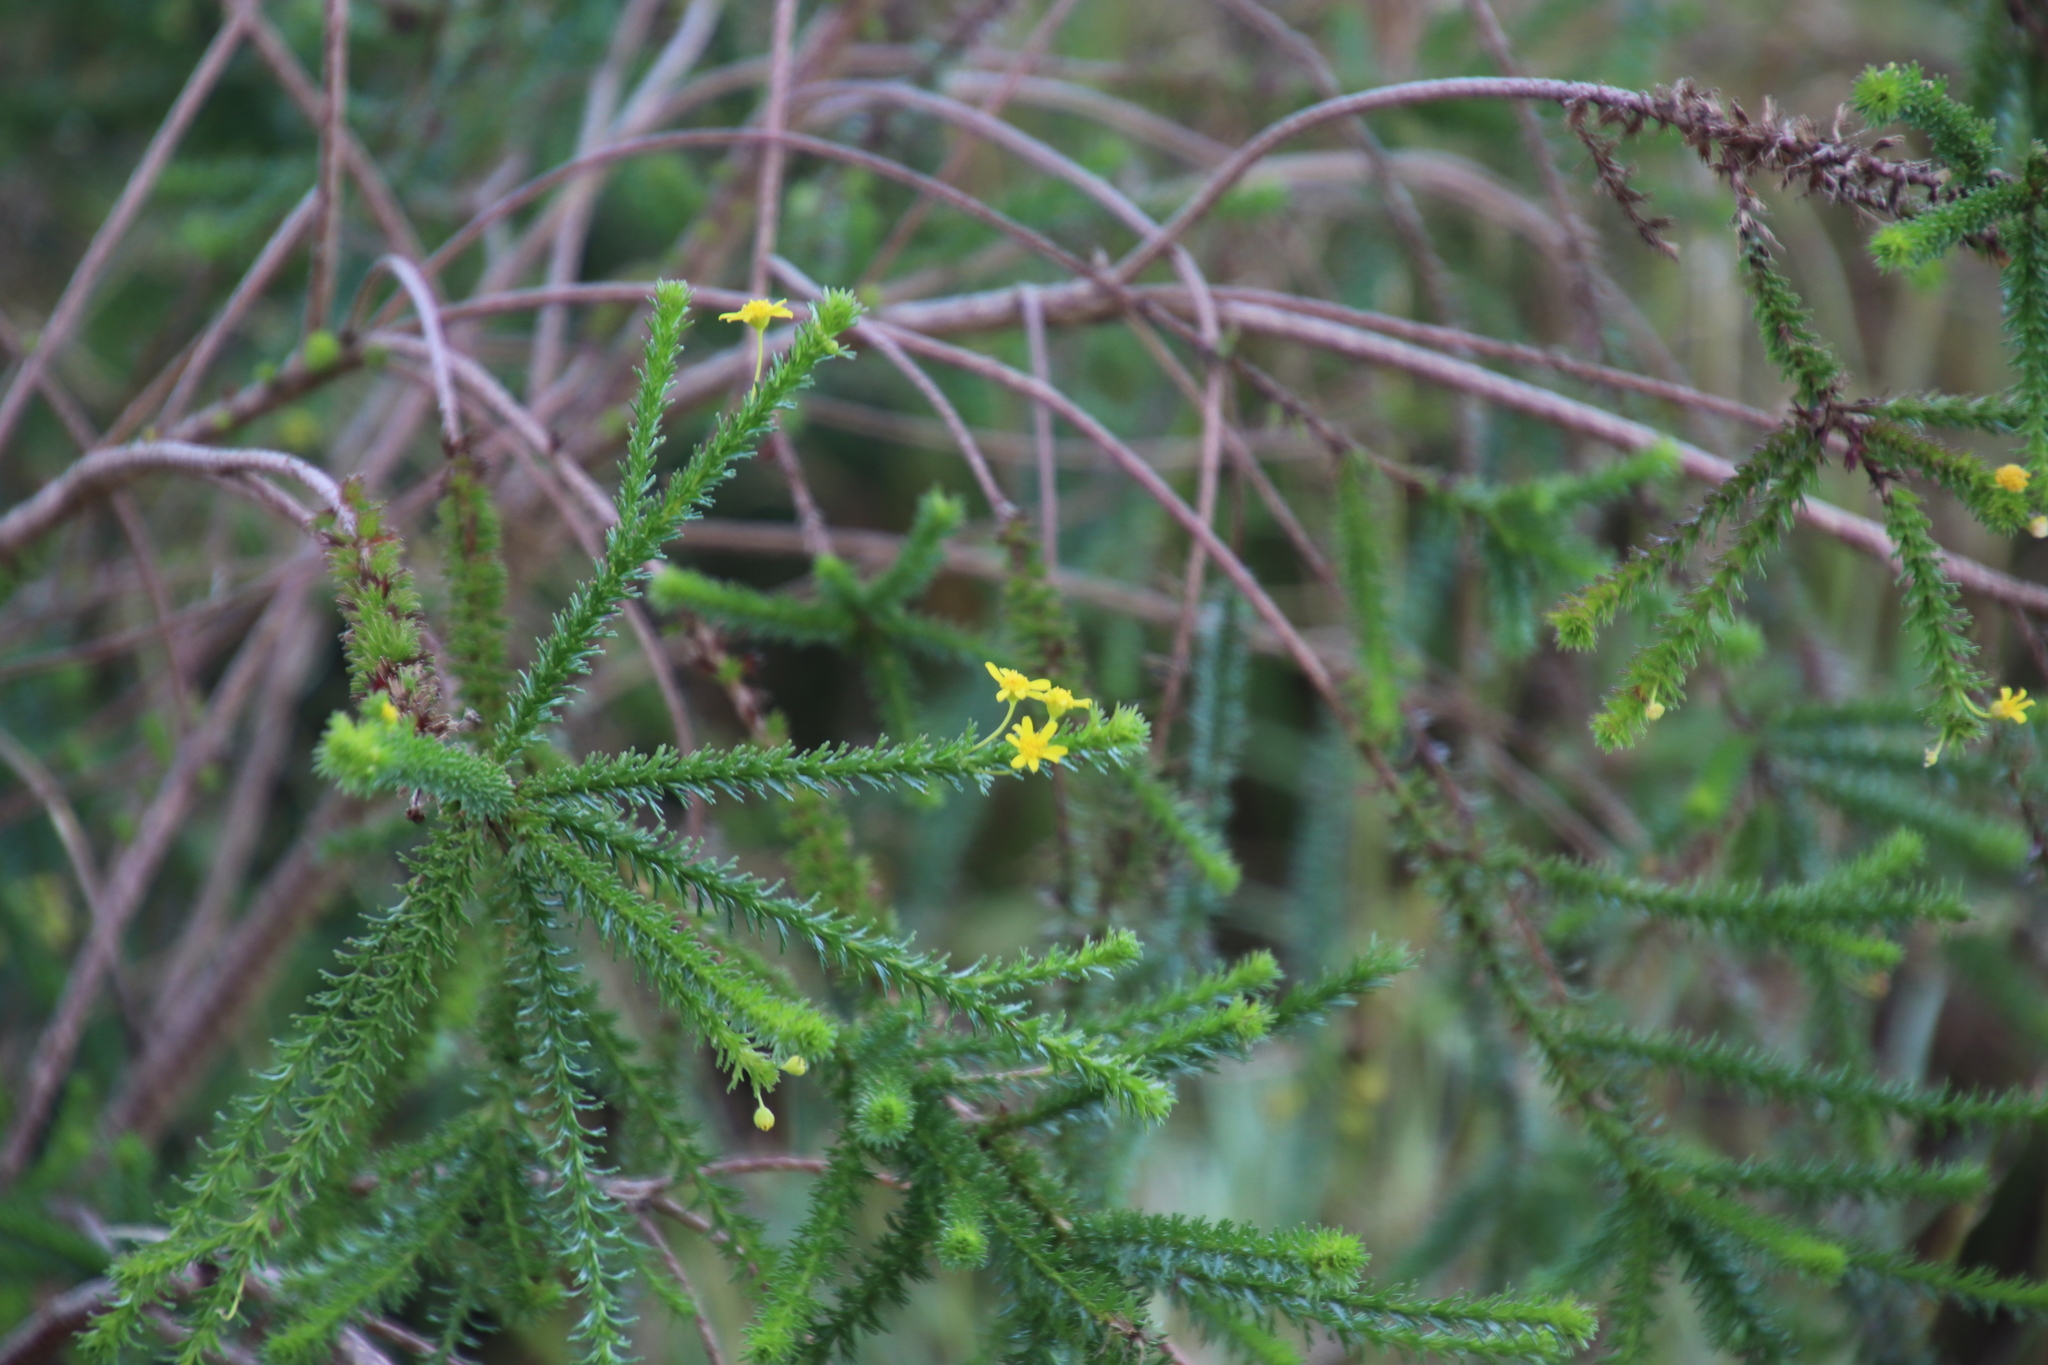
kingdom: Plantae
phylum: Tracheophyta
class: Magnoliopsida
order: Asterales
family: Asteraceae
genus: Euryops
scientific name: Euryops virgineus
